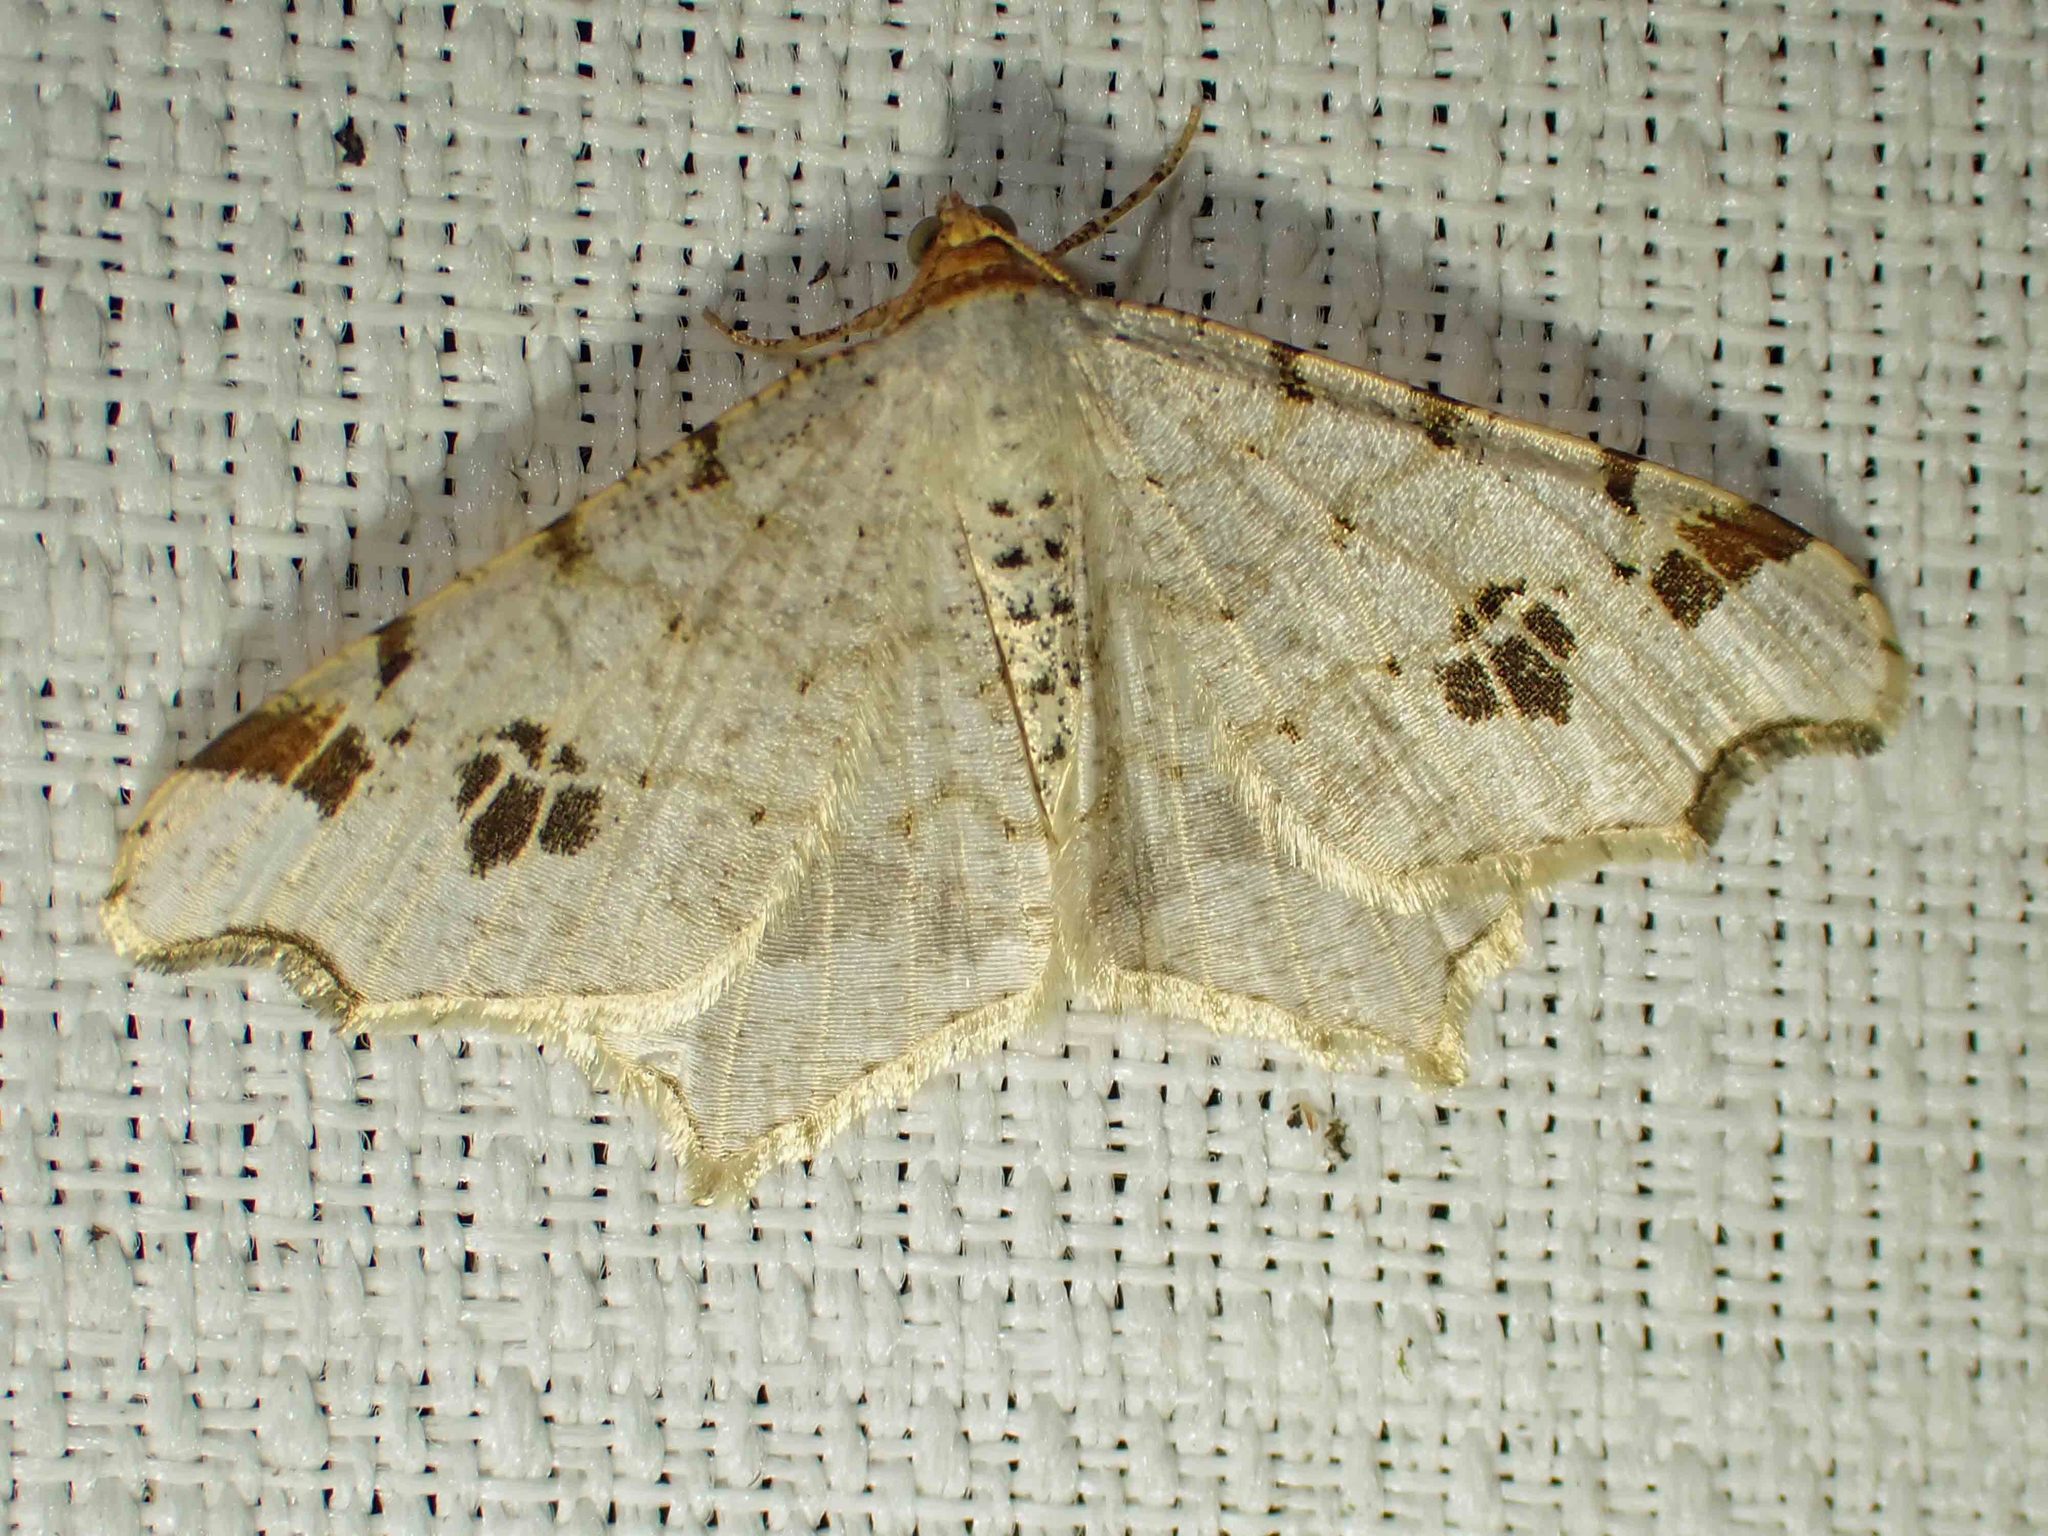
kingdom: Animalia
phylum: Arthropoda
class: Insecta
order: Lepidoptera
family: Geometridae
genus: Macaria
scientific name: Macaria ulsterata
